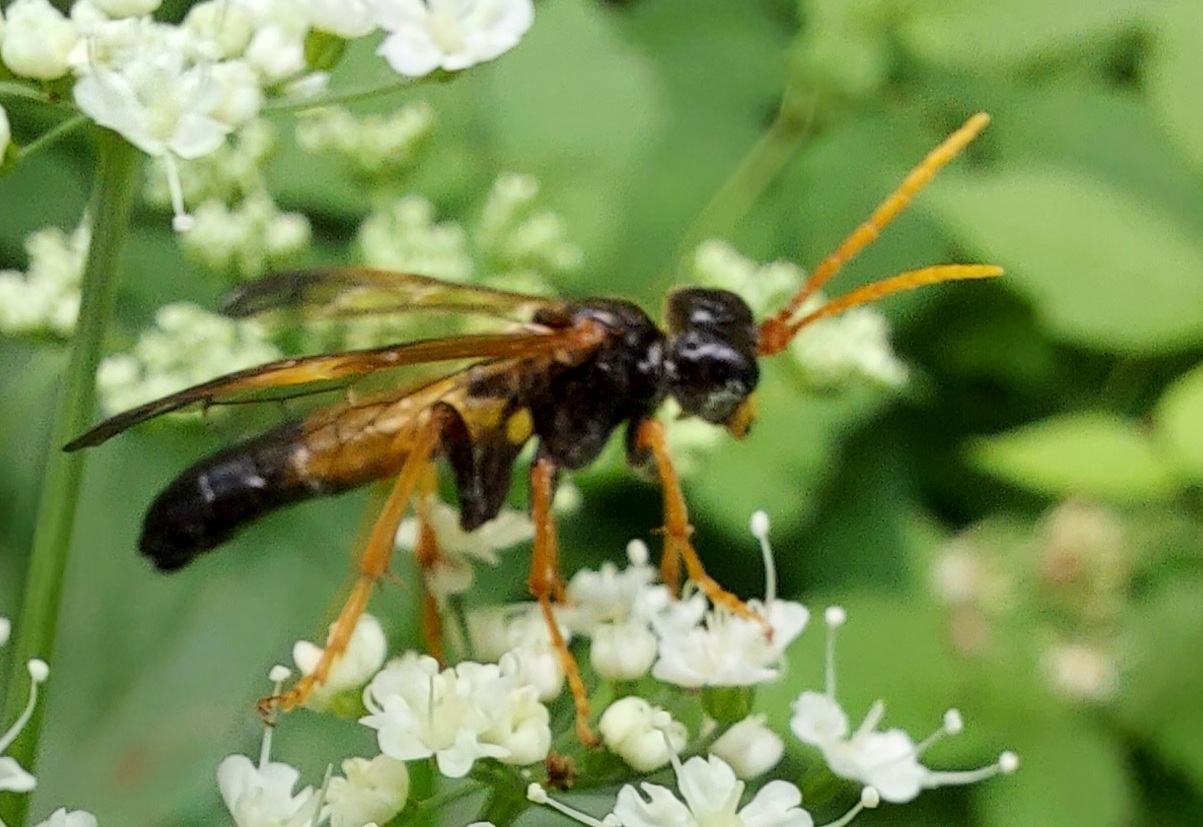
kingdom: Animalia
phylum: Arthropoda
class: Insecta
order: Hymenoptera
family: Tenthredinidae
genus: Tenthredo
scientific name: Tenthredo campestris
